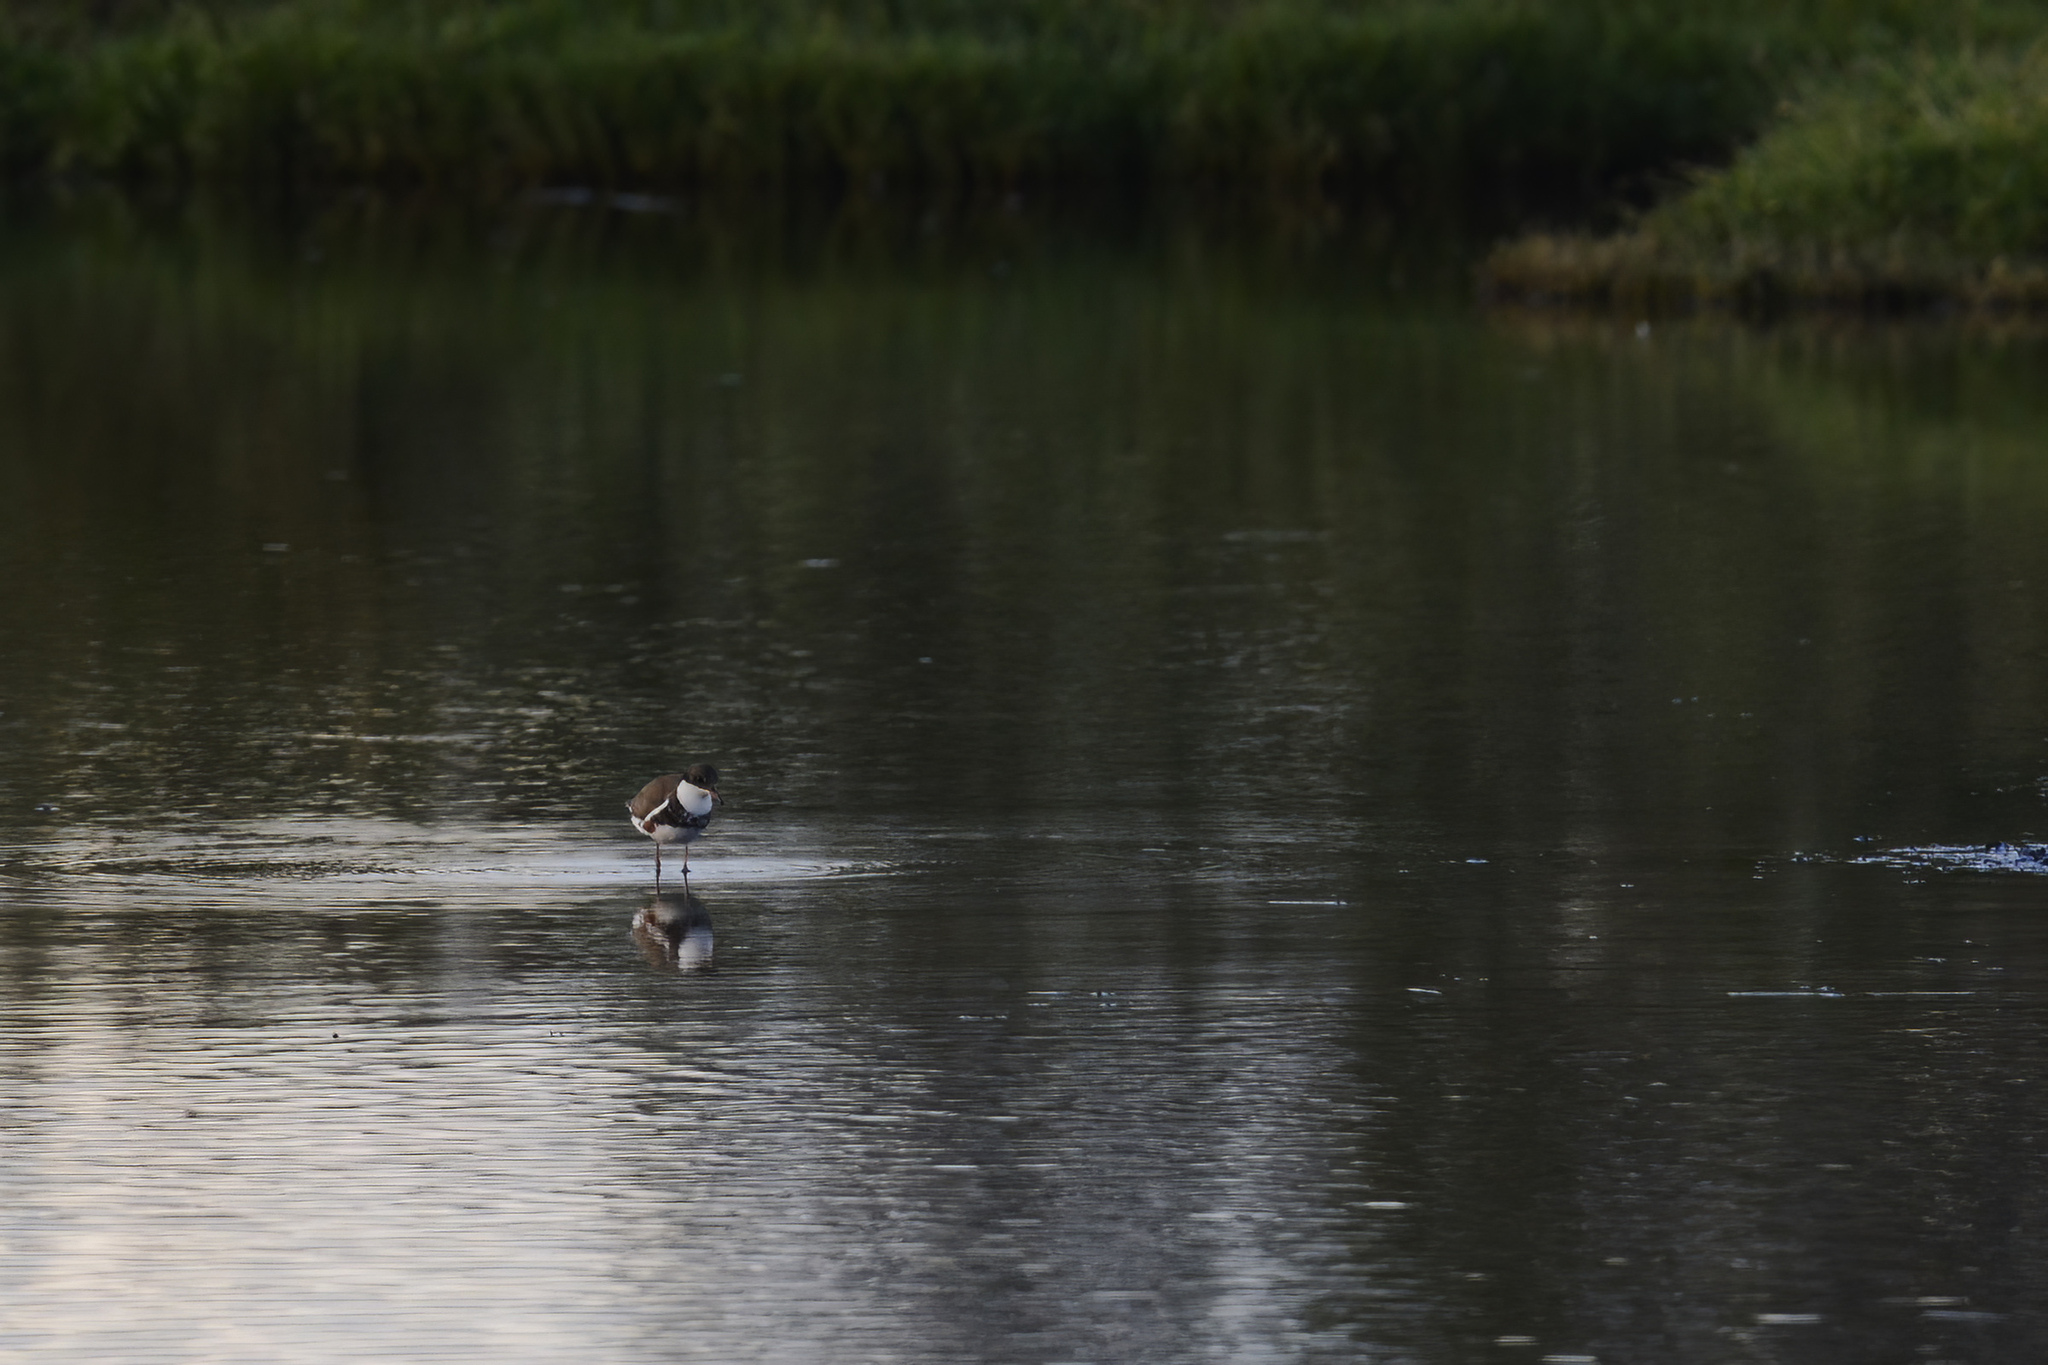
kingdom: Animalia
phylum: Chordata
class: Aves
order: Charadriiformes
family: Charadriidae
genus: Erythrogonys
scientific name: Erythrogonys cinctus
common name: Red-kneed dotterel
